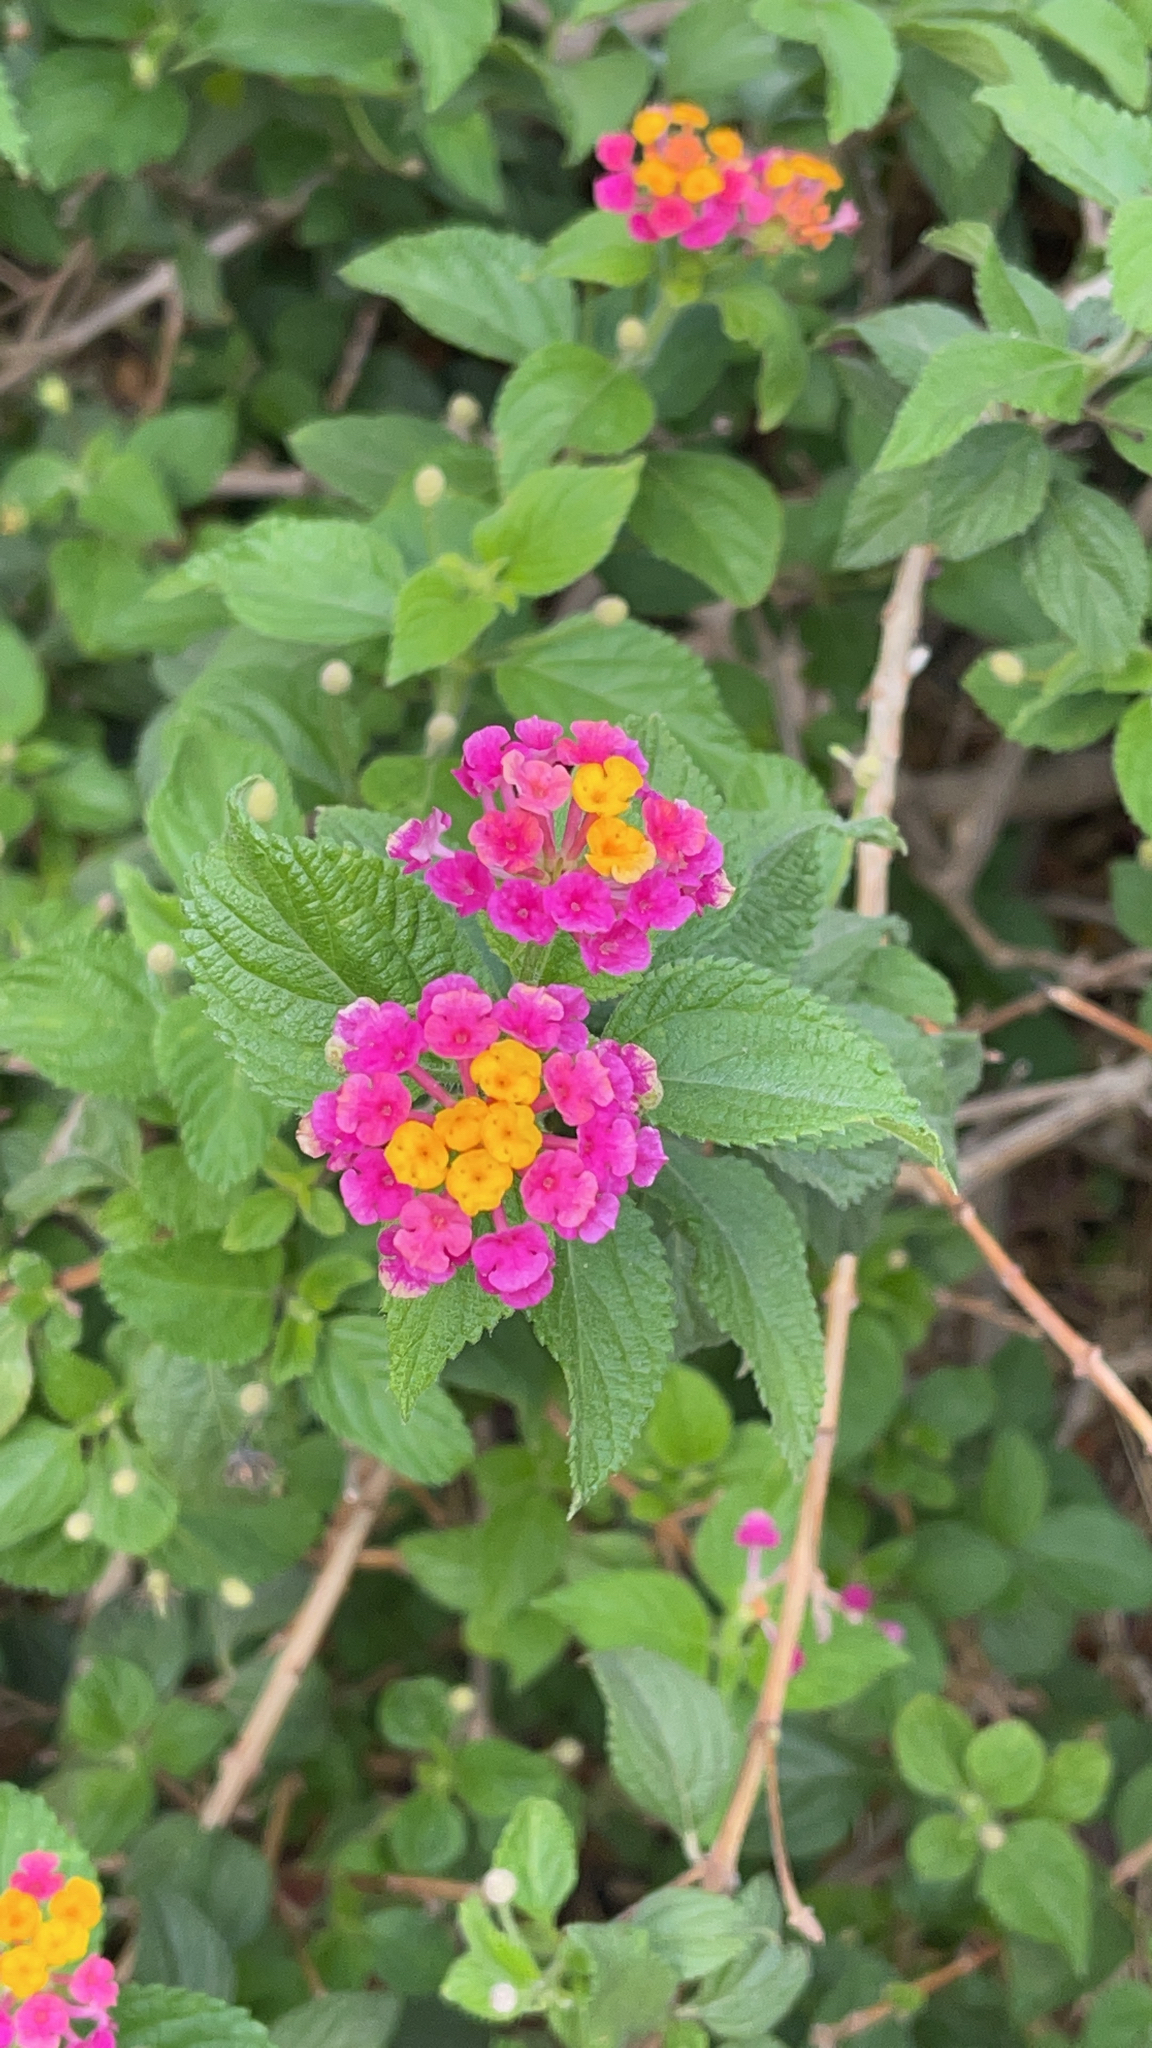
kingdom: Plantae
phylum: Tracheophyta
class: Magnoliopsida
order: Lamiales
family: Verbenaceae
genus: Lantana
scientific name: Lantana camara
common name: Lantana
